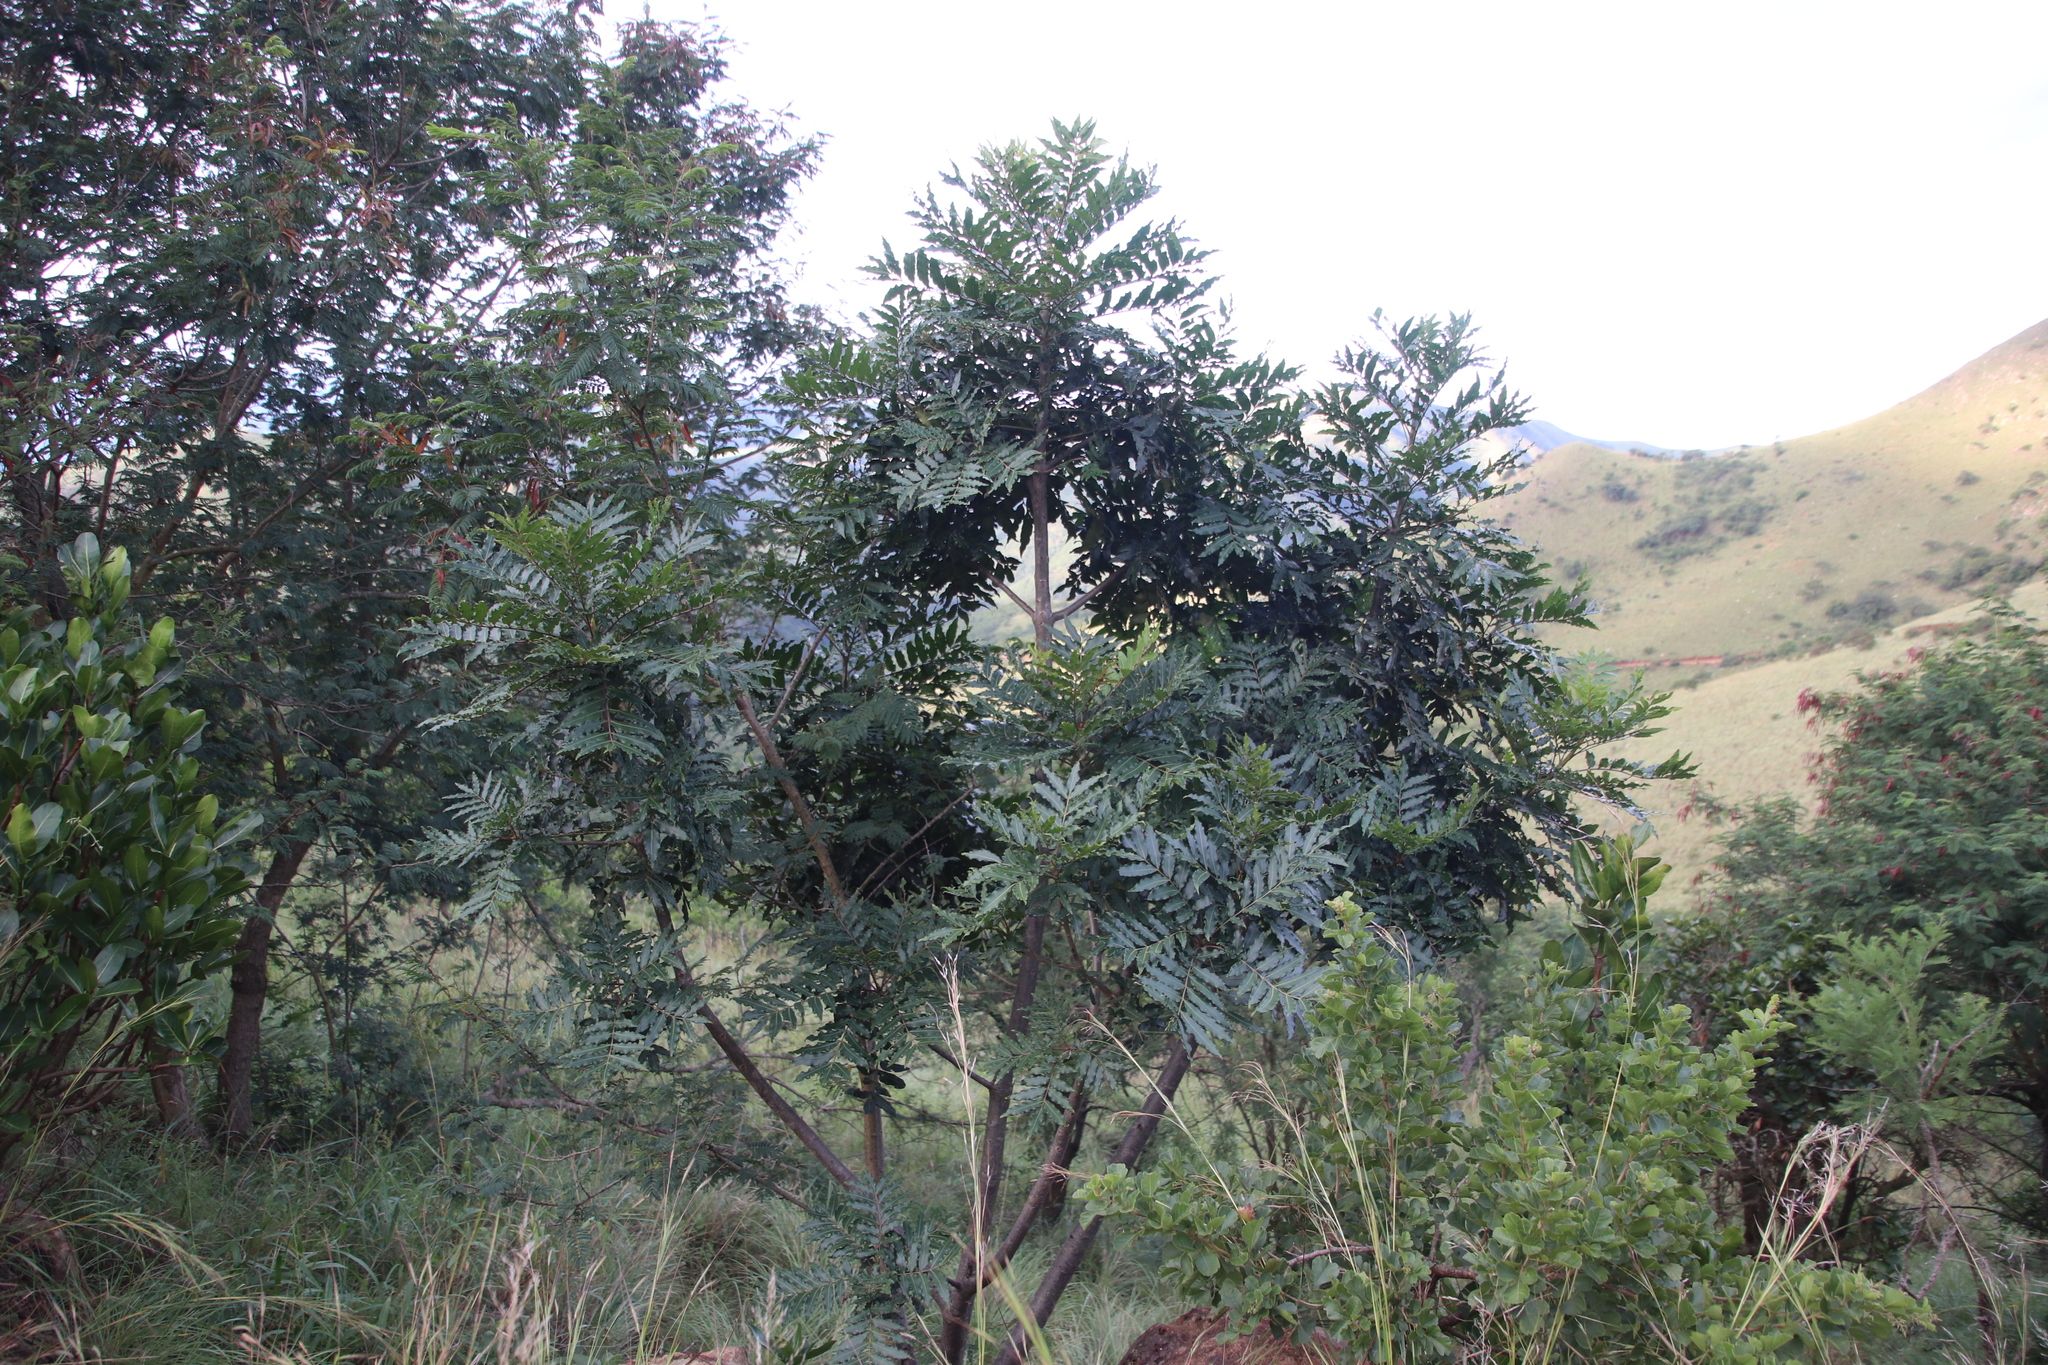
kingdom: Plantae
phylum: Tracheophyta
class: Magnoliopsida
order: Sapindales
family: Anacardiaceae
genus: Harpephyllum
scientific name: Harpephyllum caffrum
